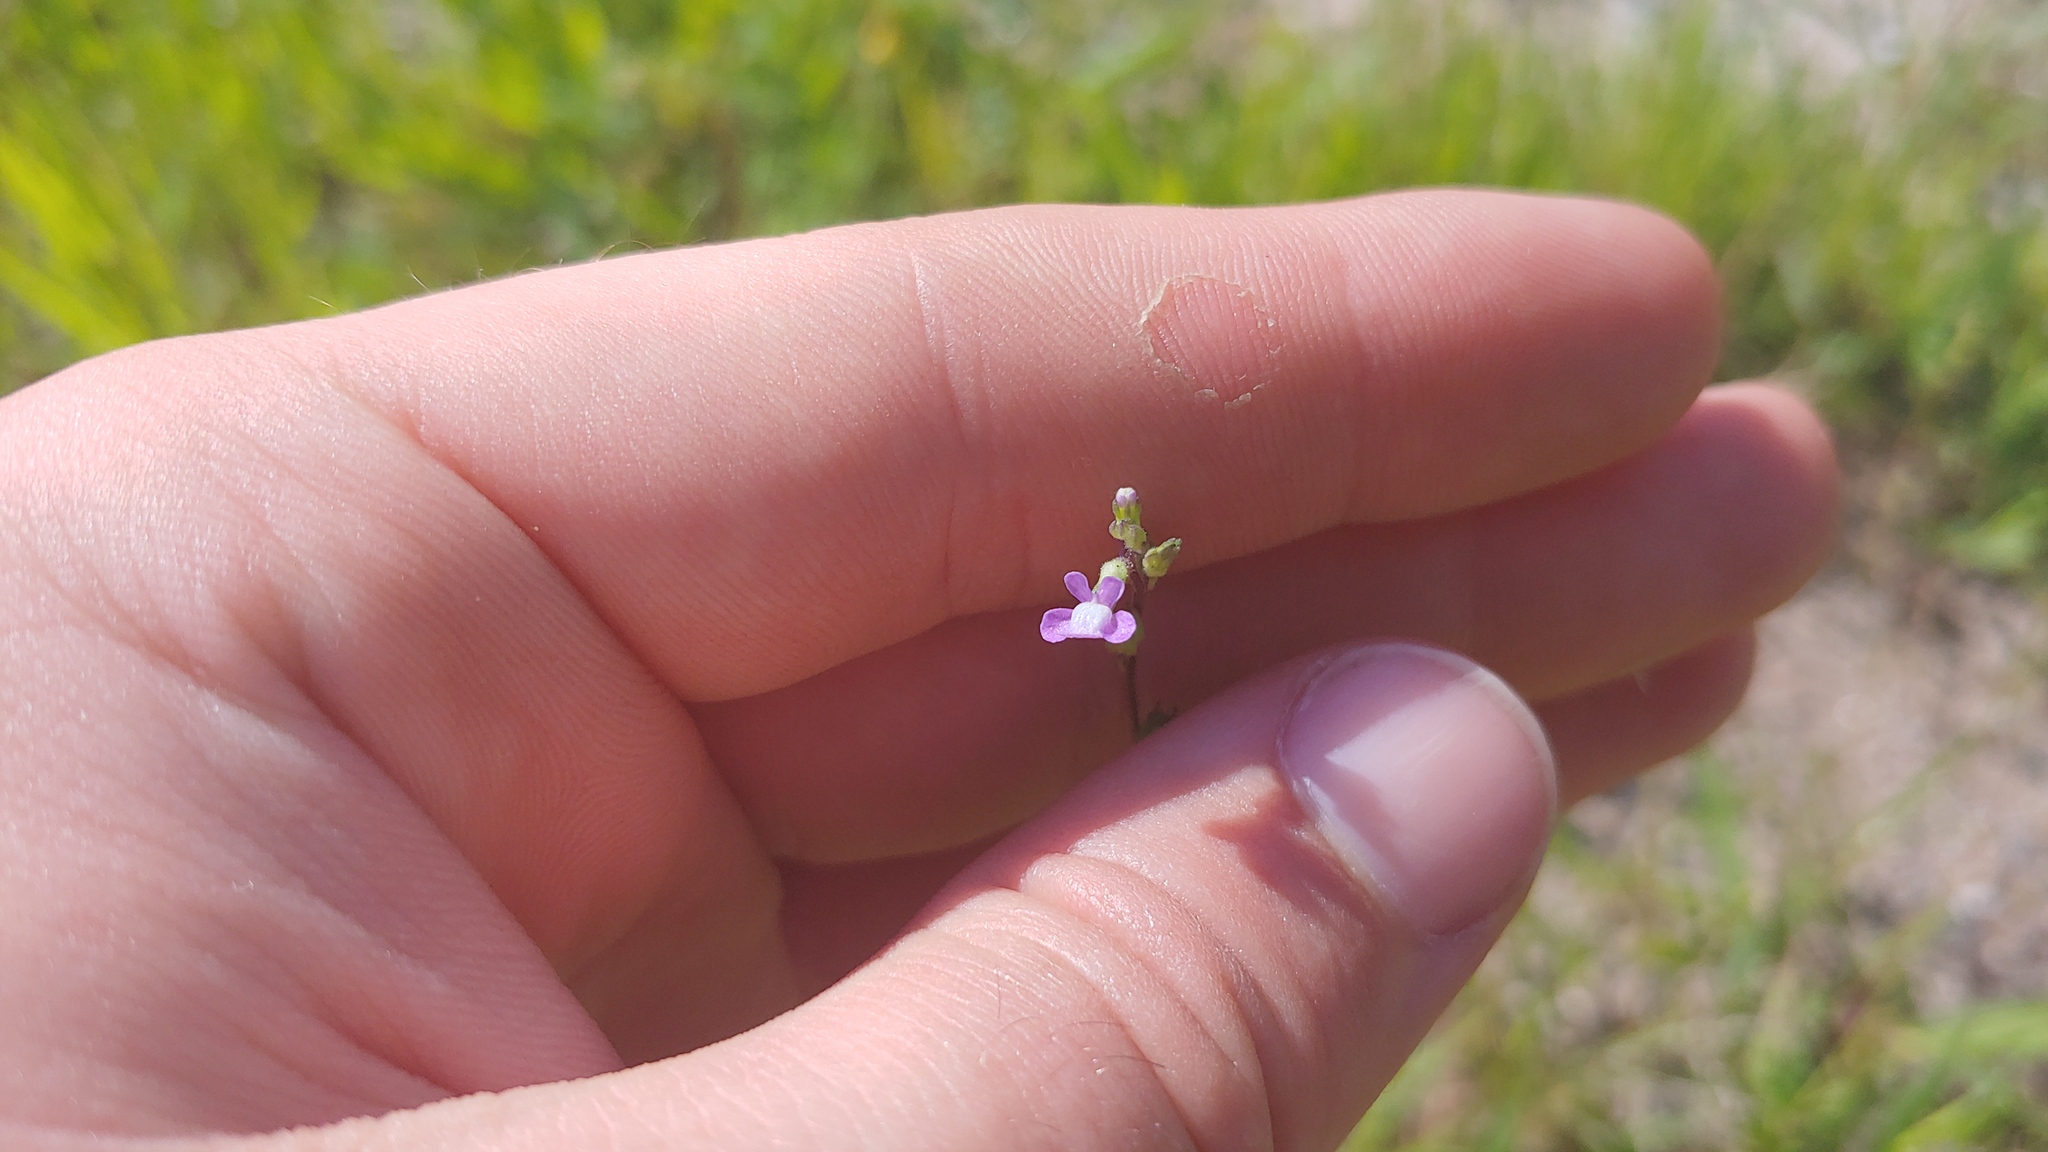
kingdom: Plantae
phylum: Tracheophyta
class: Magnoliopsida
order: Lamiales
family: Plantaginaceae
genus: Nuttallanthus
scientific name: Nuttallanthus canadensis
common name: Blue toadflax
